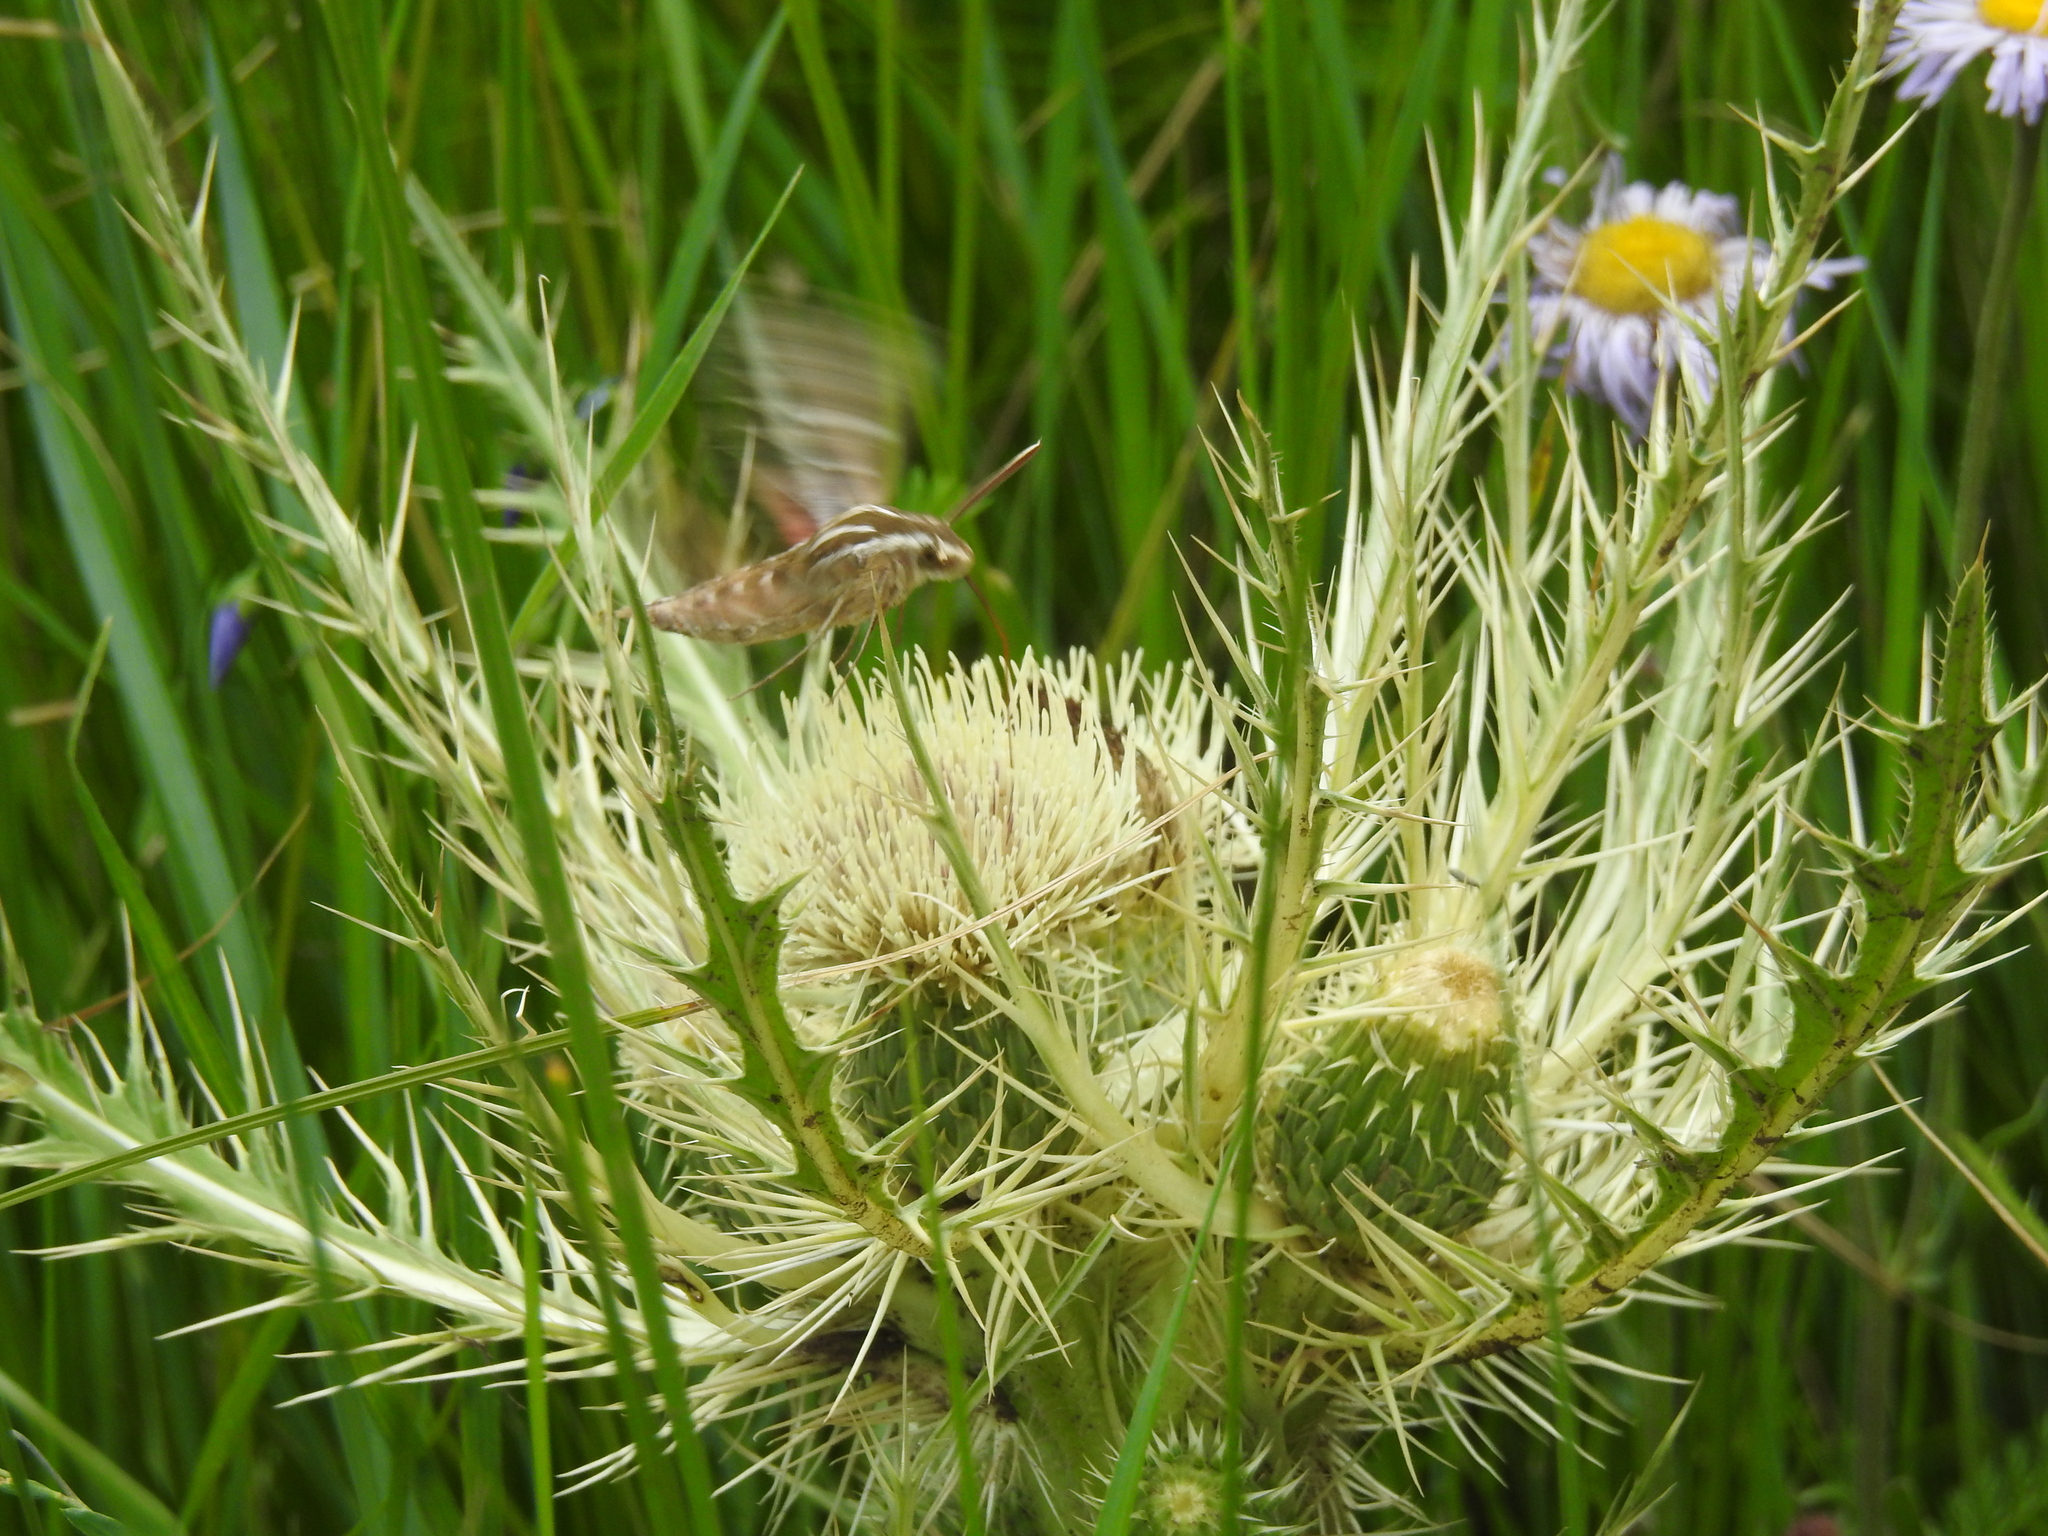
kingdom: Animalia
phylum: Arthropoda
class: Insecta
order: Lepidoptera
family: Sphingidae
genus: Hyles
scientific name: Hyles lineata
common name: White-lined sphinx
